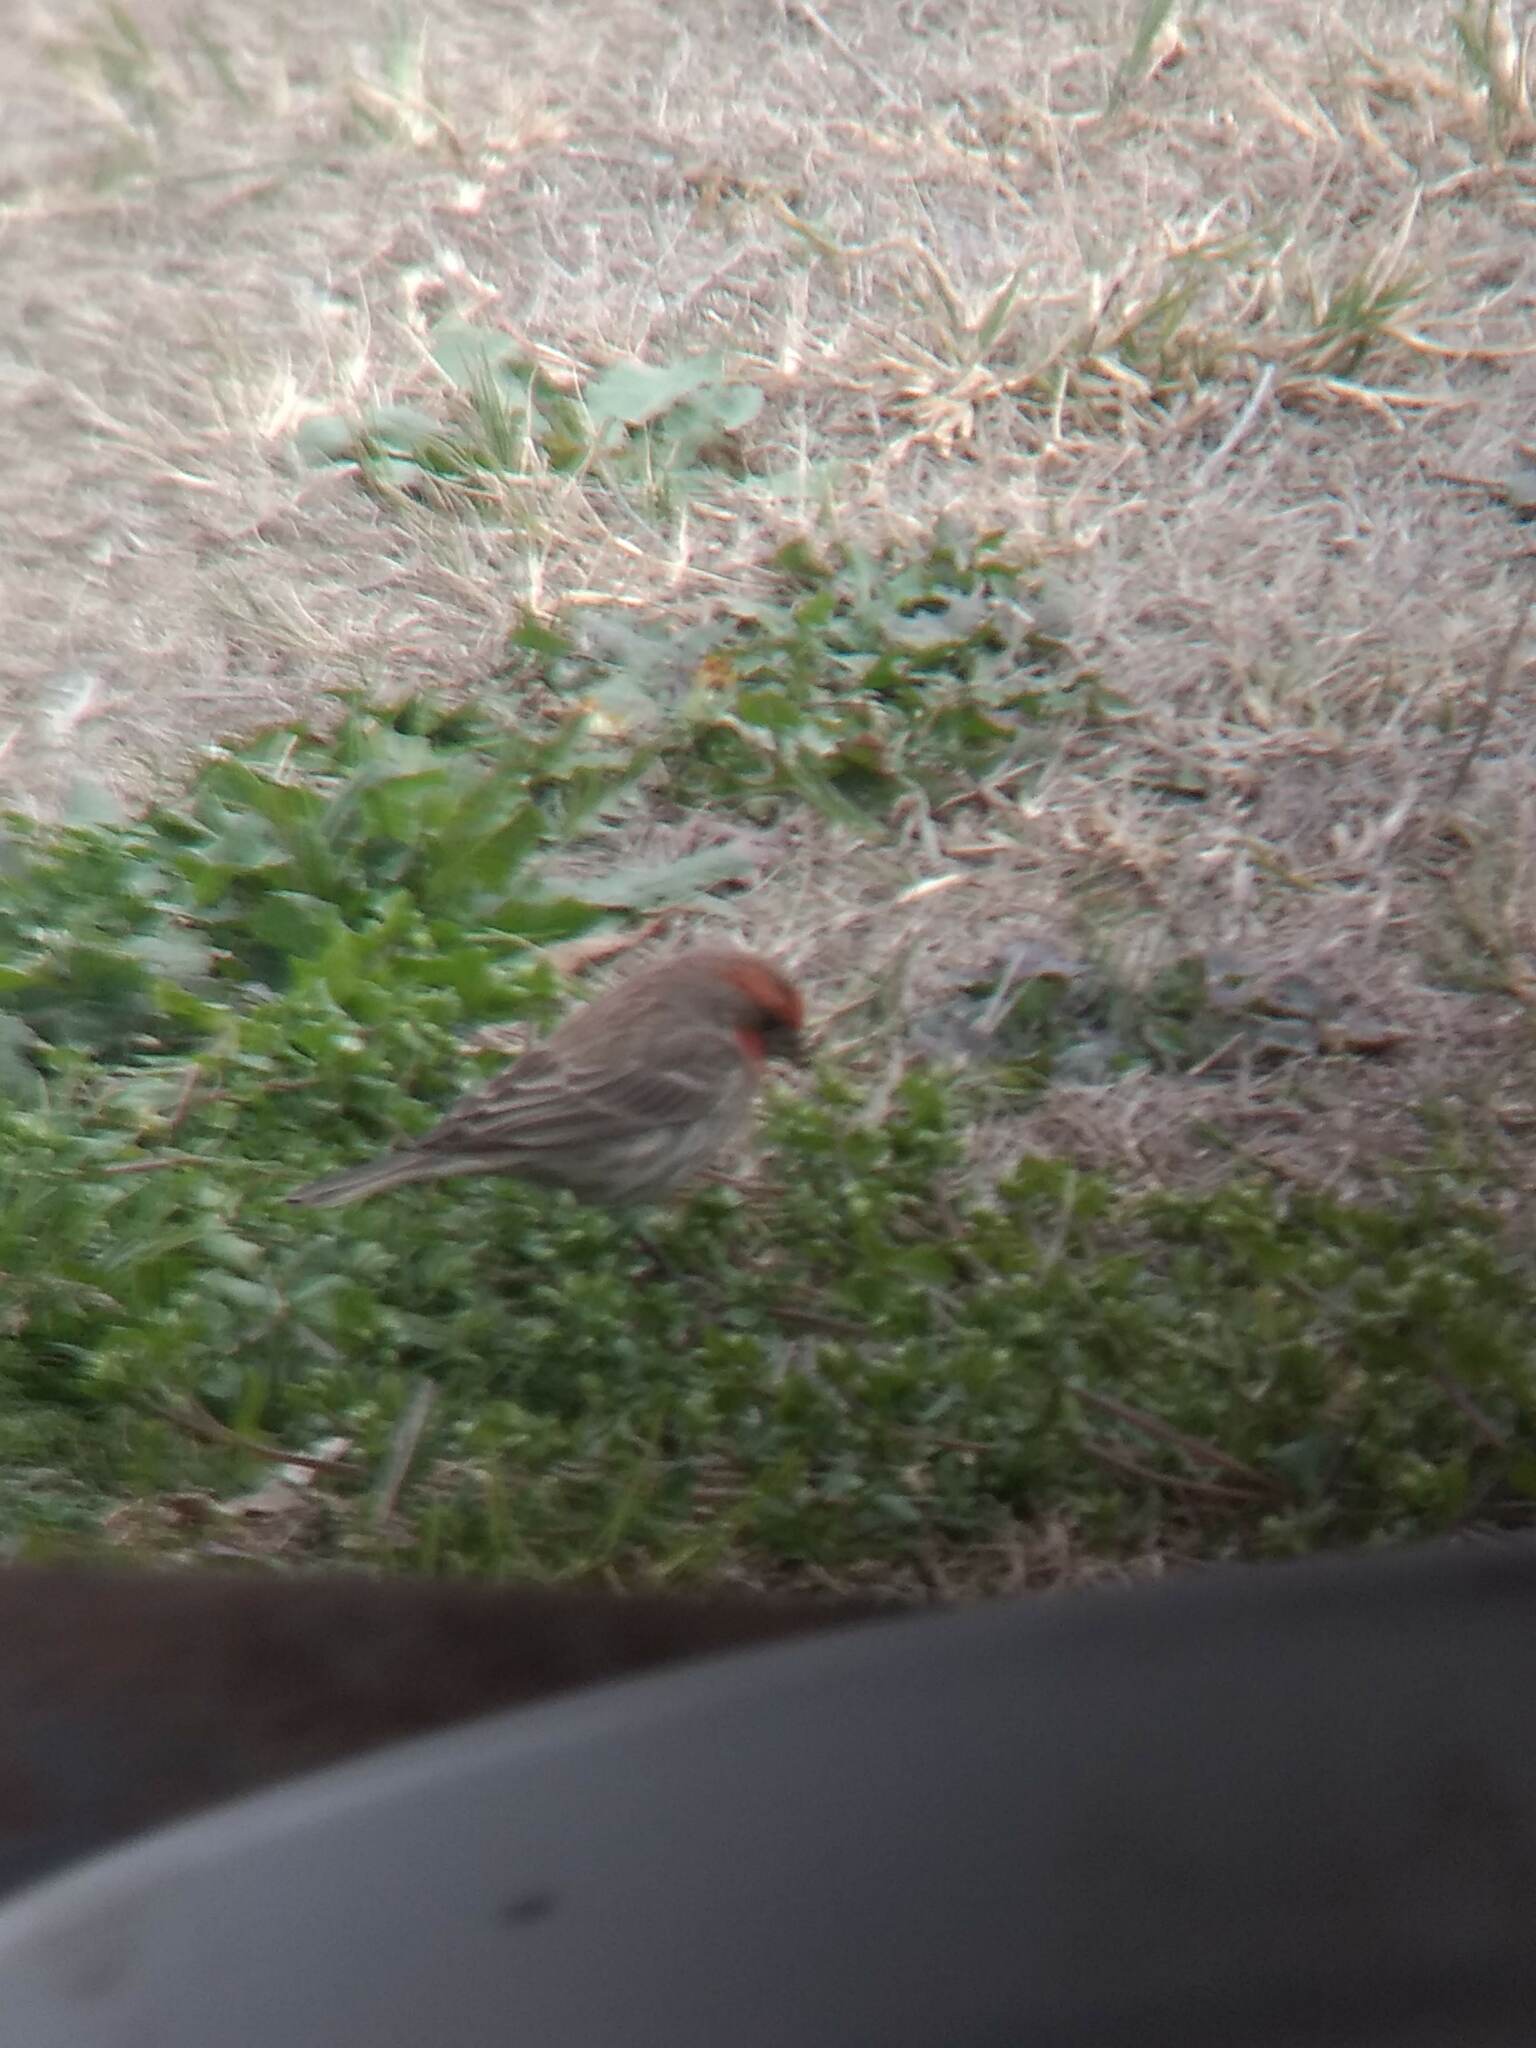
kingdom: Animalia
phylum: Chordata
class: Aves
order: Passeriformes
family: Fringillidae
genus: Haemorhous
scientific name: Haemorhous mexicanus
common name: House finch
